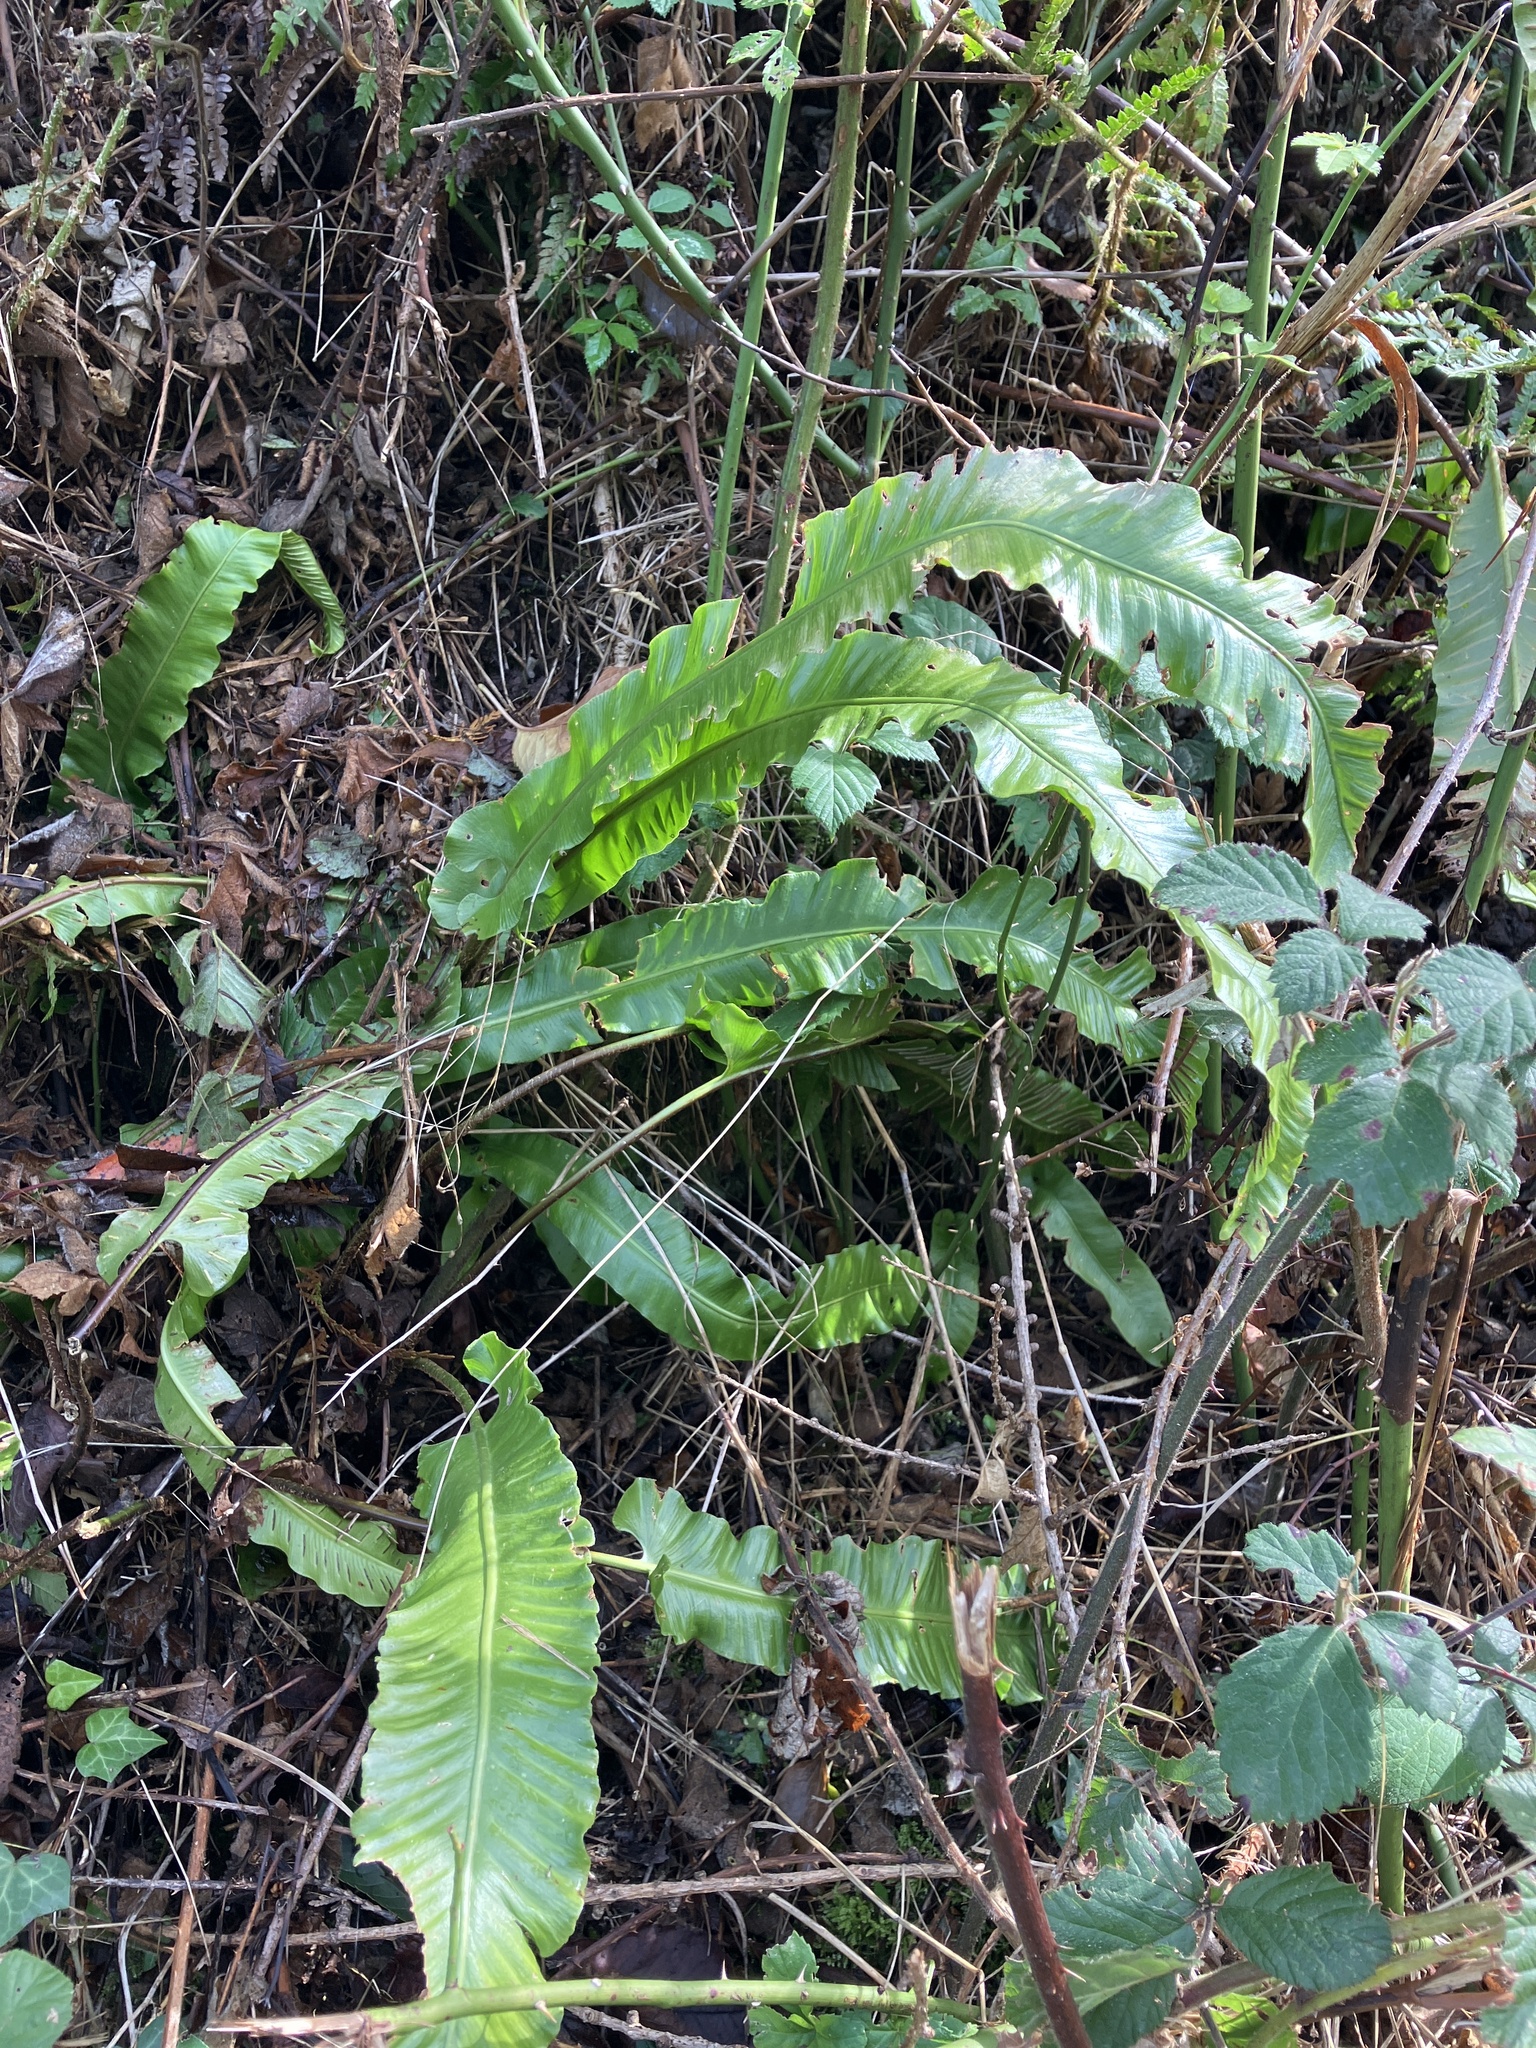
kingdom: Plantae
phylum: Tracheophyta
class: Polypodiopsida
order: Polypodiales
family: Aspleniaceae
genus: Asplenium
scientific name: Asplenium scolopendrium
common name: Hart's-tongue fern
